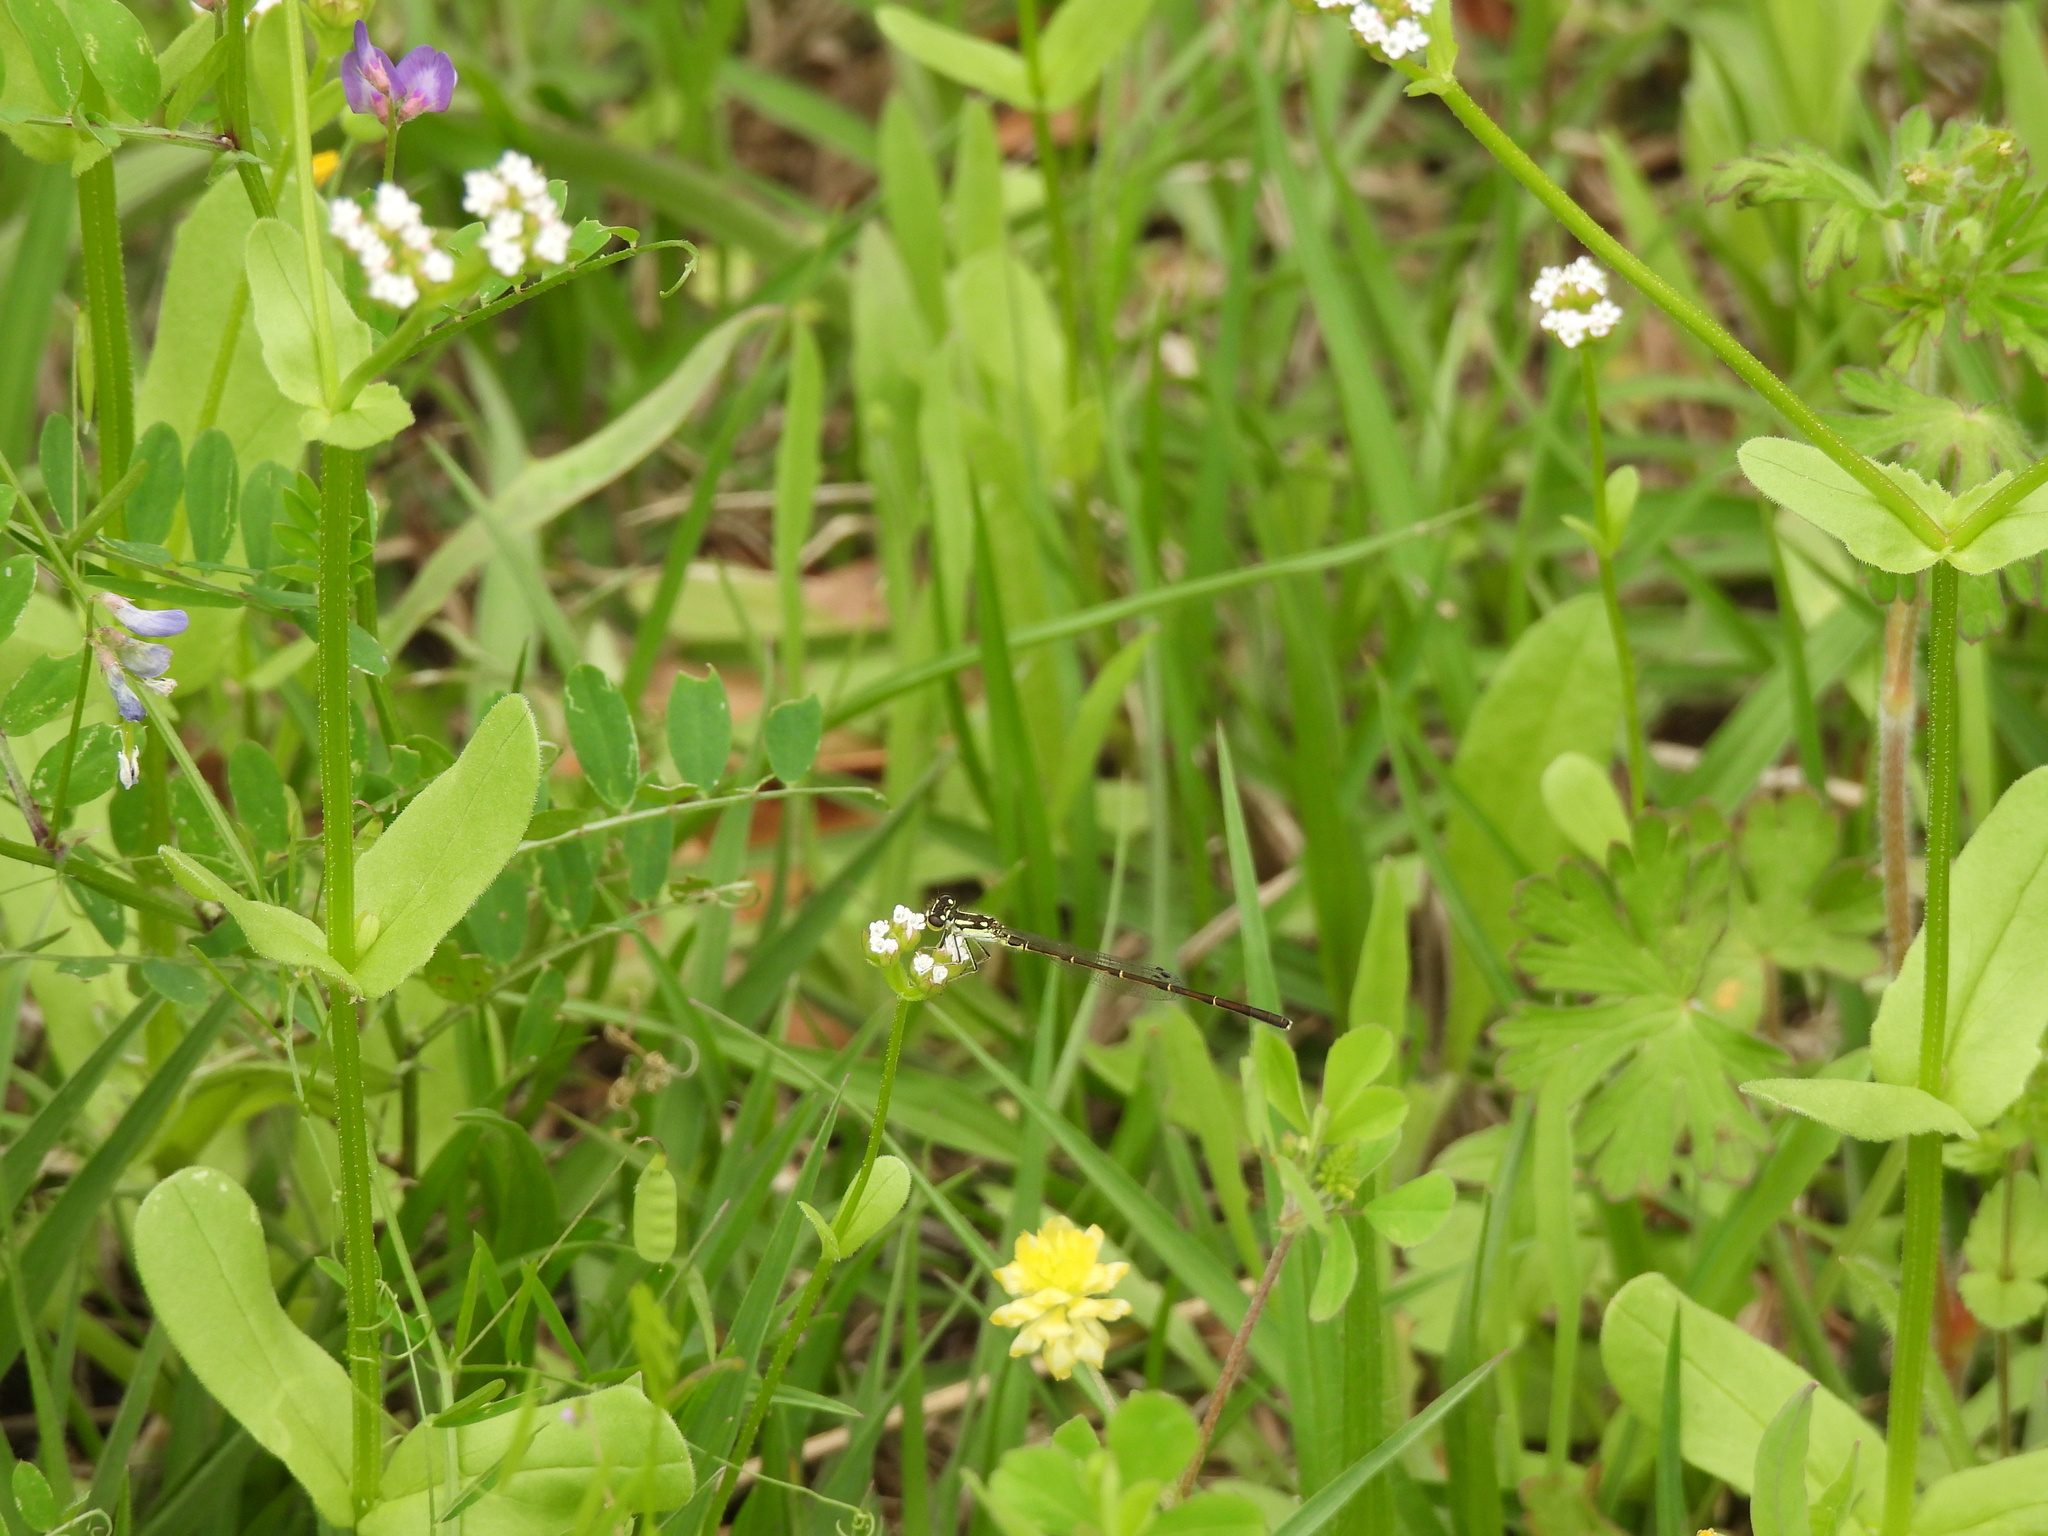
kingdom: Animalia
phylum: Arthropoda
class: Insecta
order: Odonata
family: Coenagrionidae
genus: Ischnura
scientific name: Ischnura posita
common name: Fragile forktail
